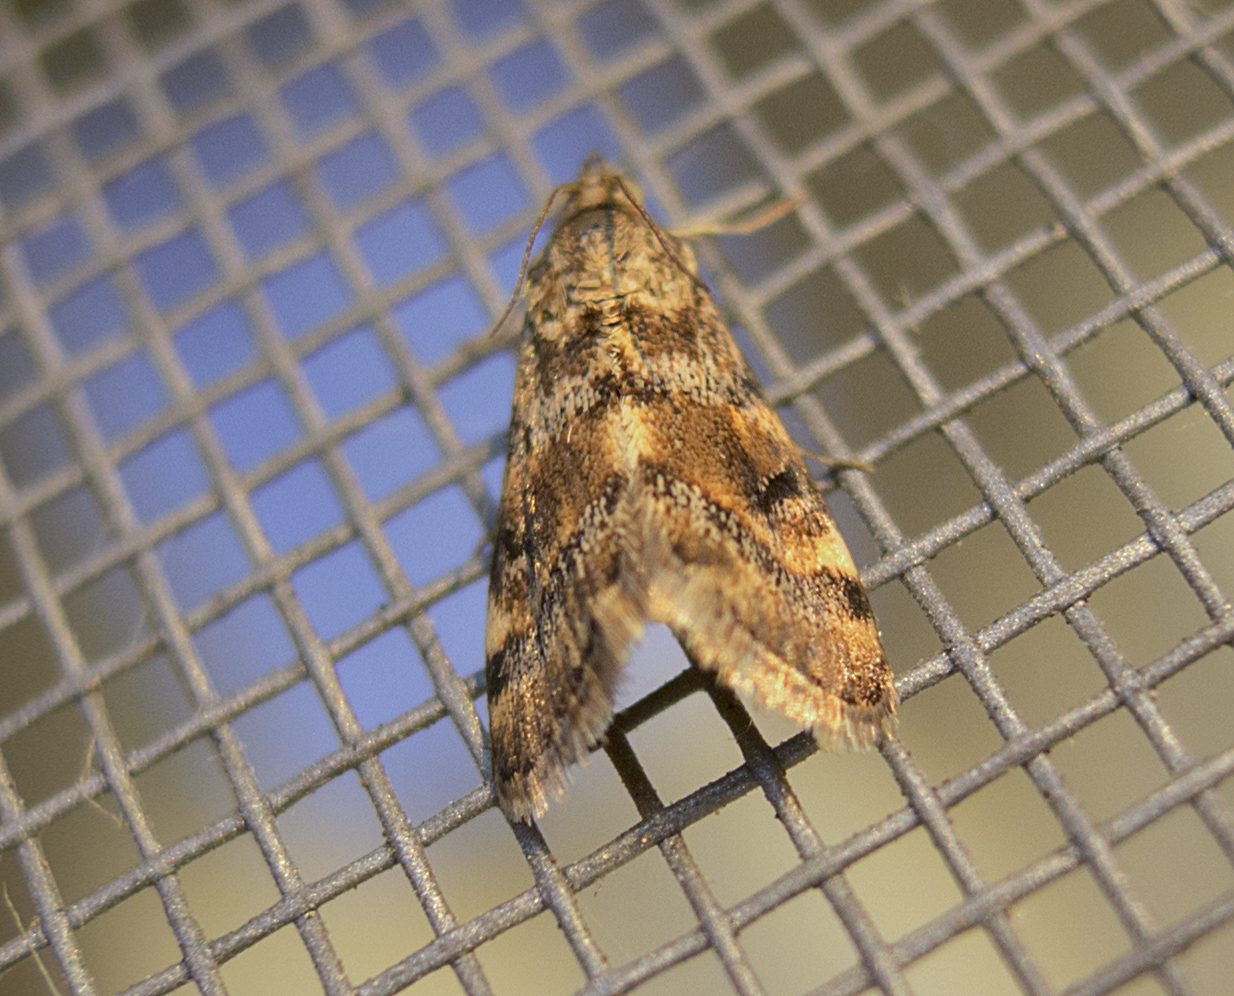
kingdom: Animalia
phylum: Arthropoda
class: Insecta
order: Lepidoptera
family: Crambidae
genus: Noctuelia
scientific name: Noctuelia Aporodes floralis
